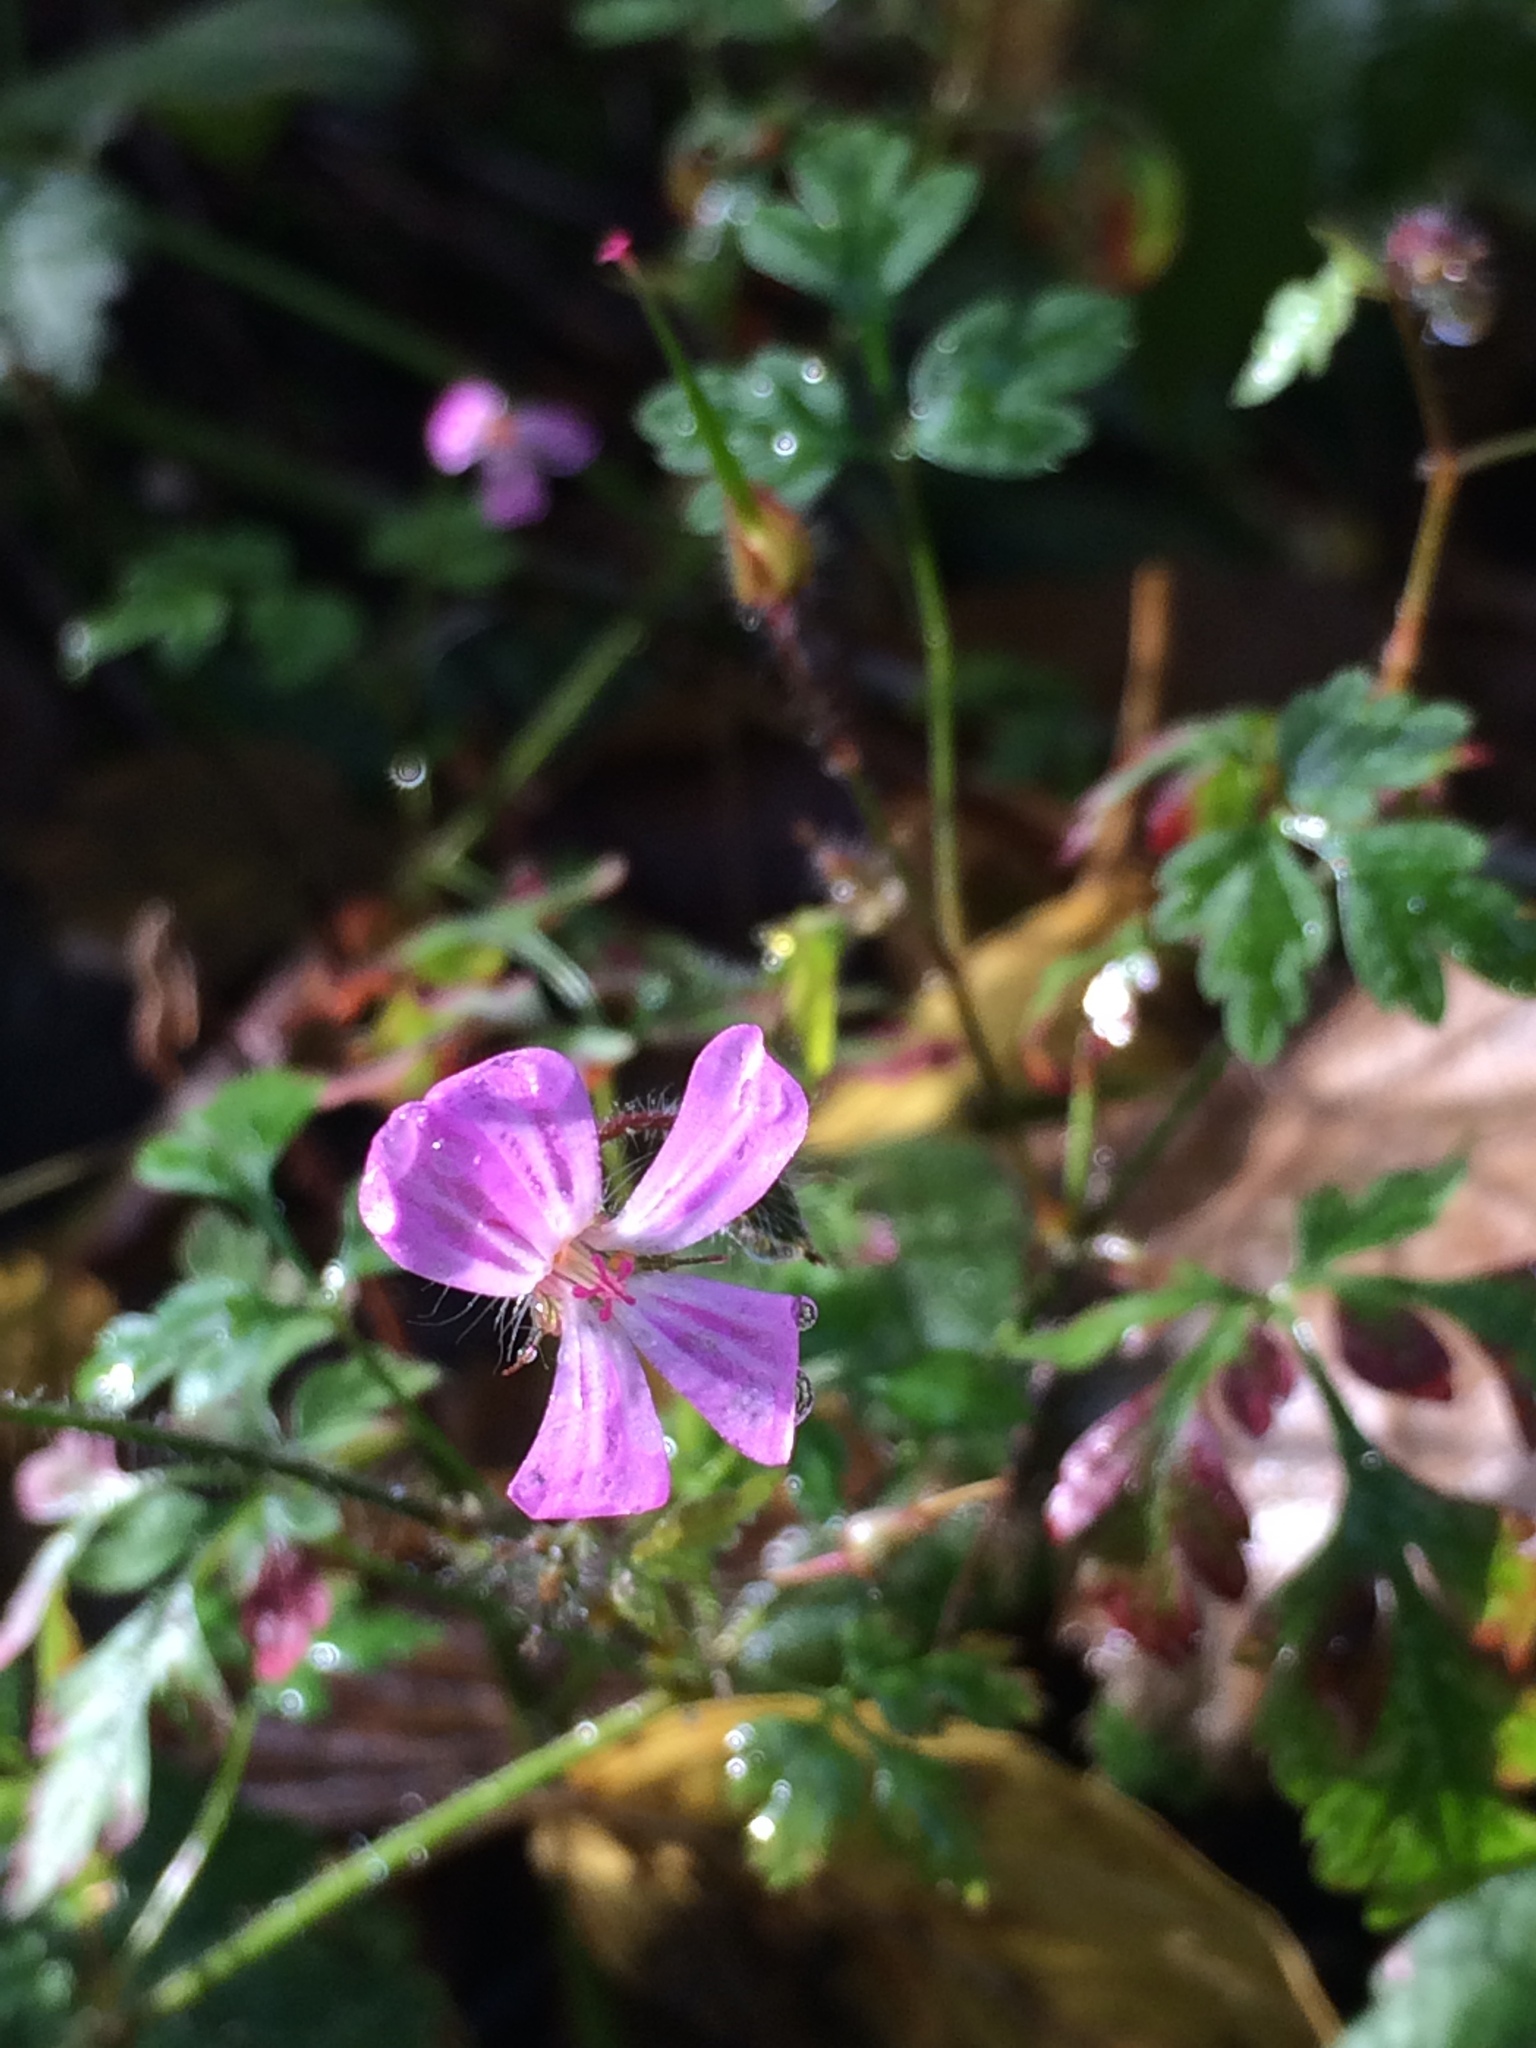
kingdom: Plantae
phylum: Tracheophyta
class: Magnoliopsida
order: Geraniales
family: Geraniaceae
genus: Geranium
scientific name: Geranium robertianum
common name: Herb-robert
